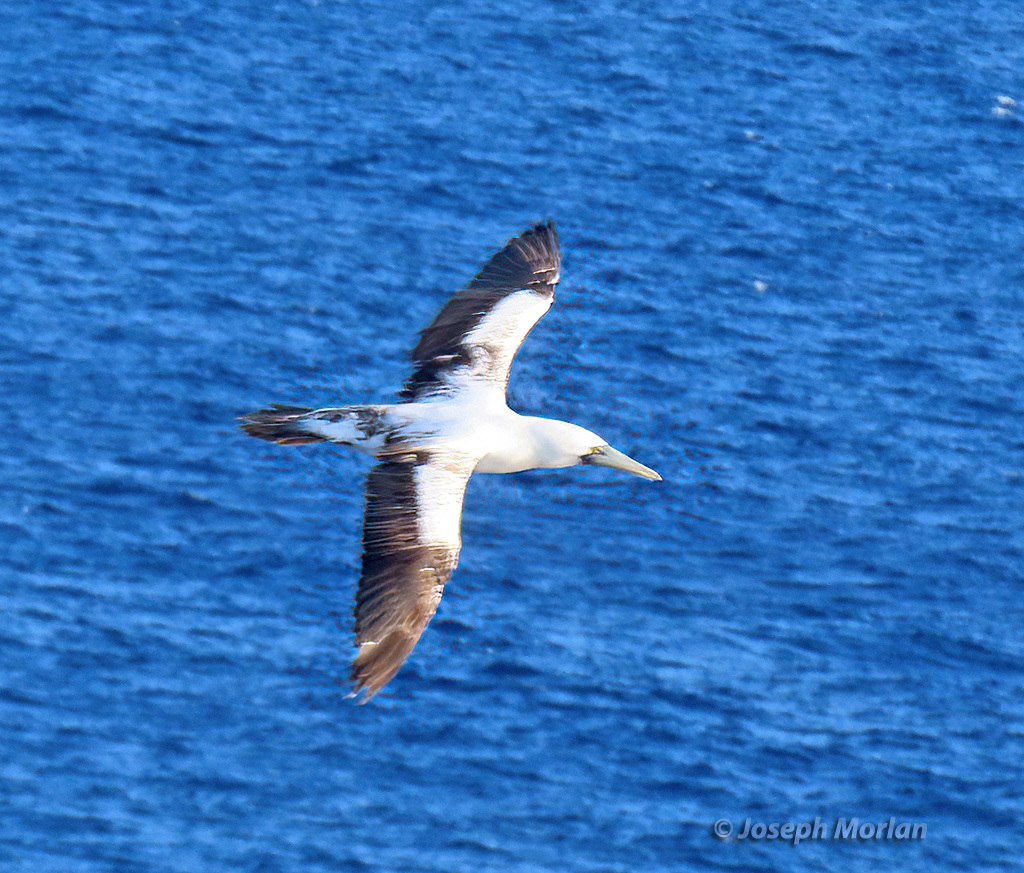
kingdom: Animalia
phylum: Chordata
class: Aves
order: Suliformes
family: Sulidae
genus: Sula
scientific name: Sula dactylatra
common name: Masked booby
